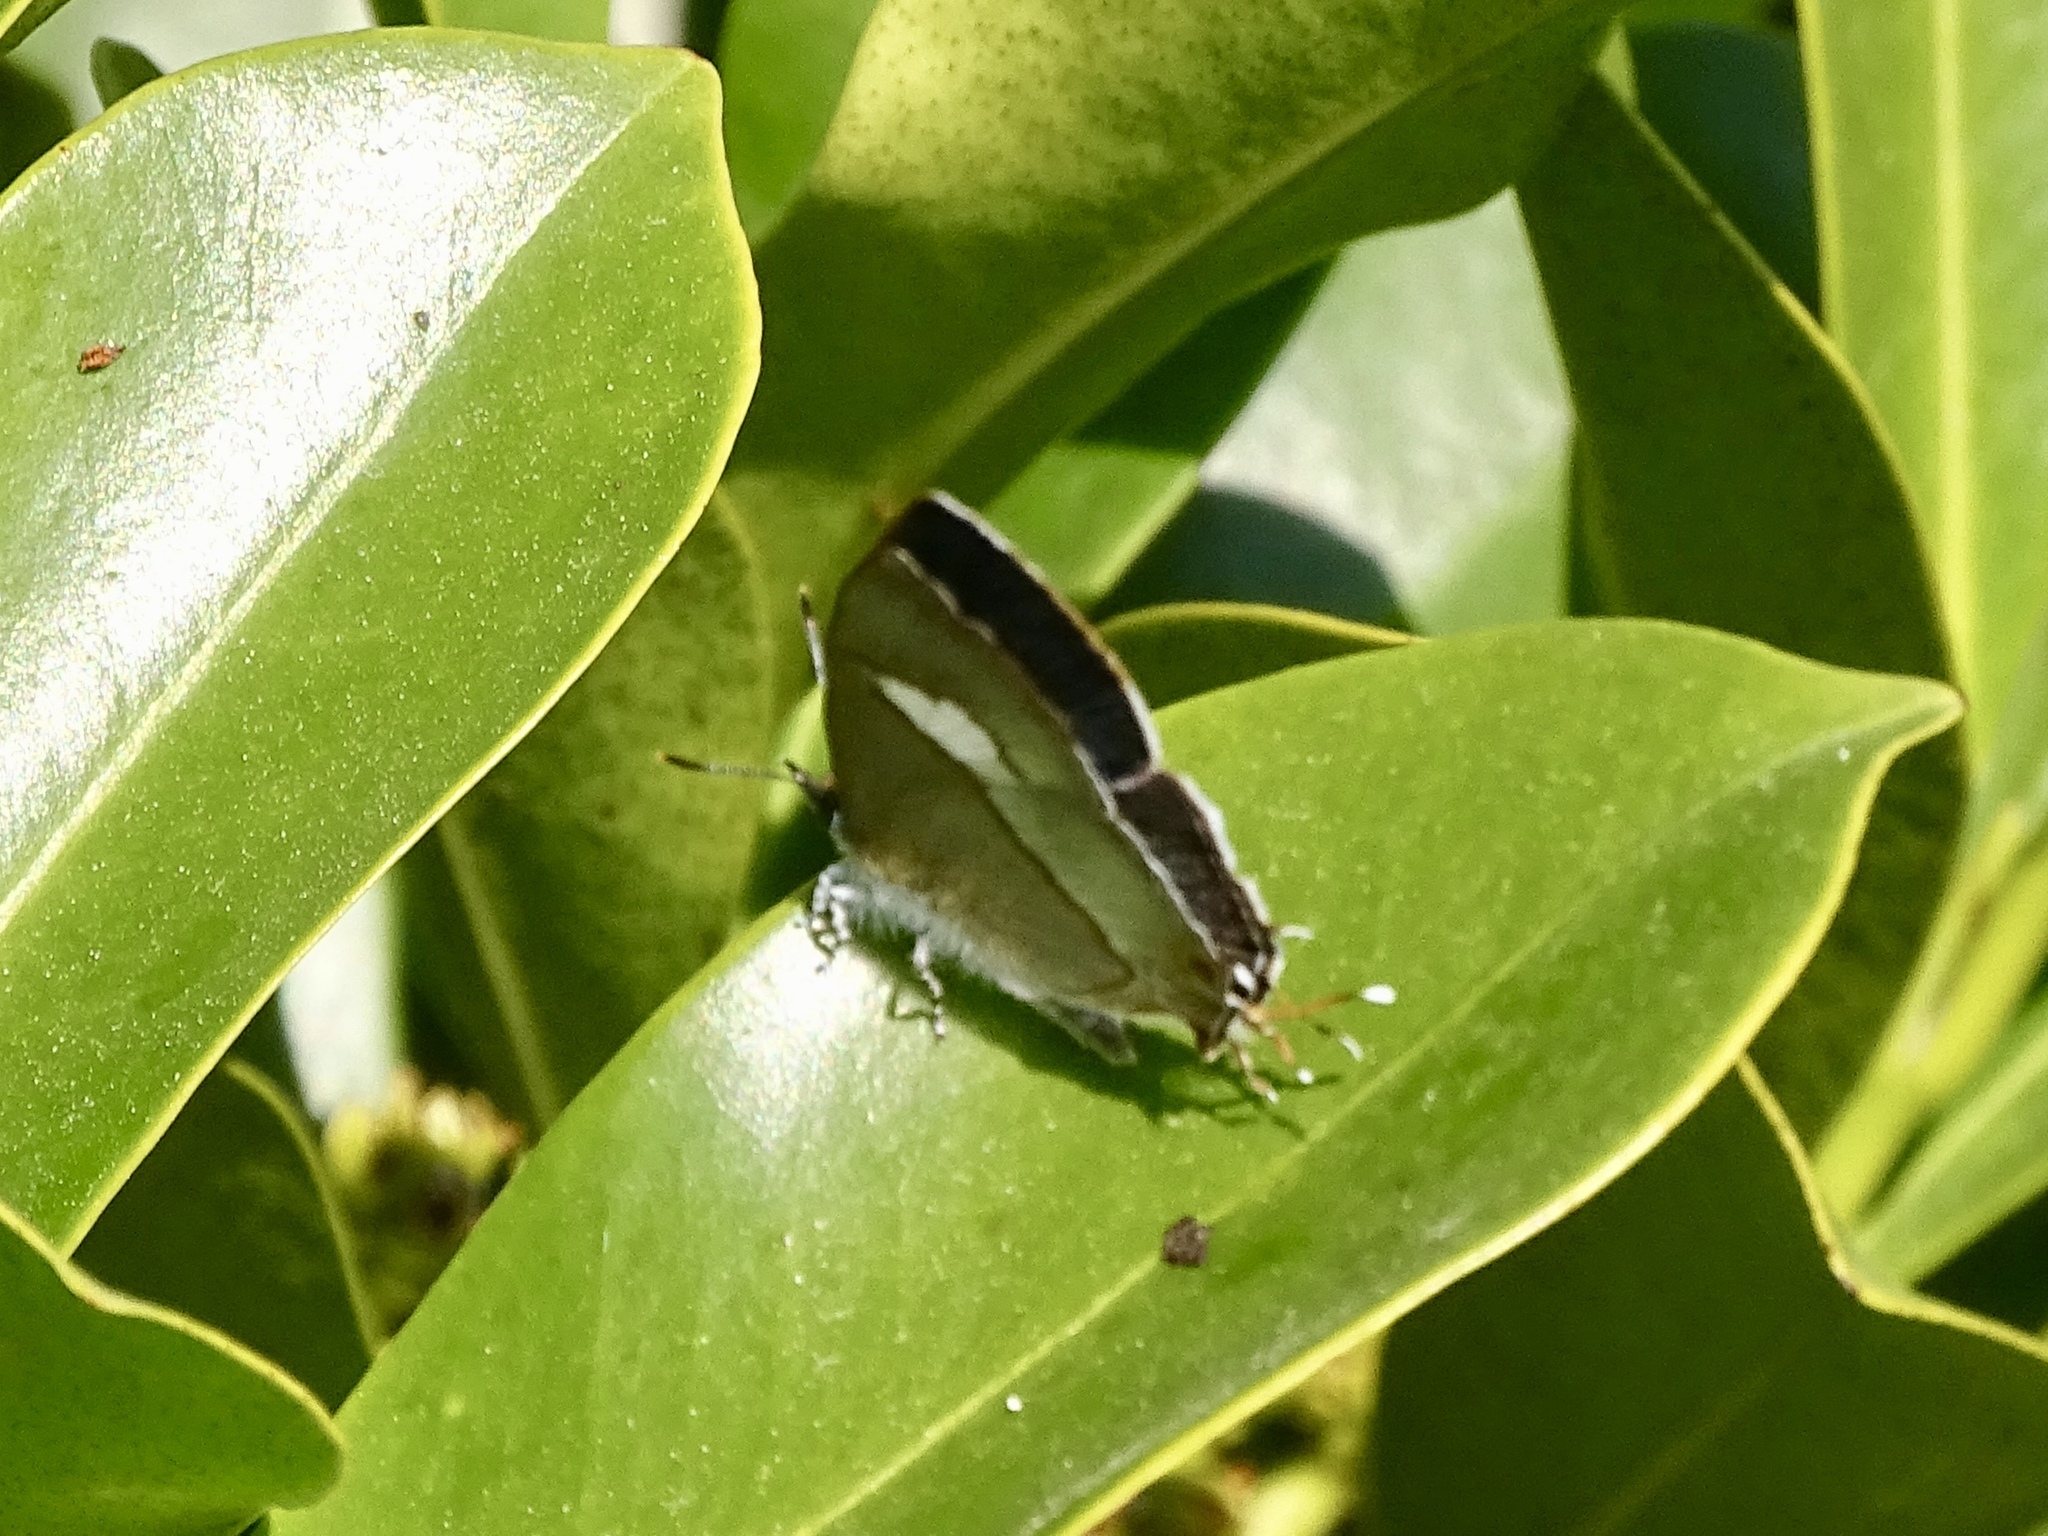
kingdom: Animalia
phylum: Arthropoda
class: Insecta
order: Lepidoptera
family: Lycaenidae
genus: Horaga
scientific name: Horaga onyx
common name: Common onyx
